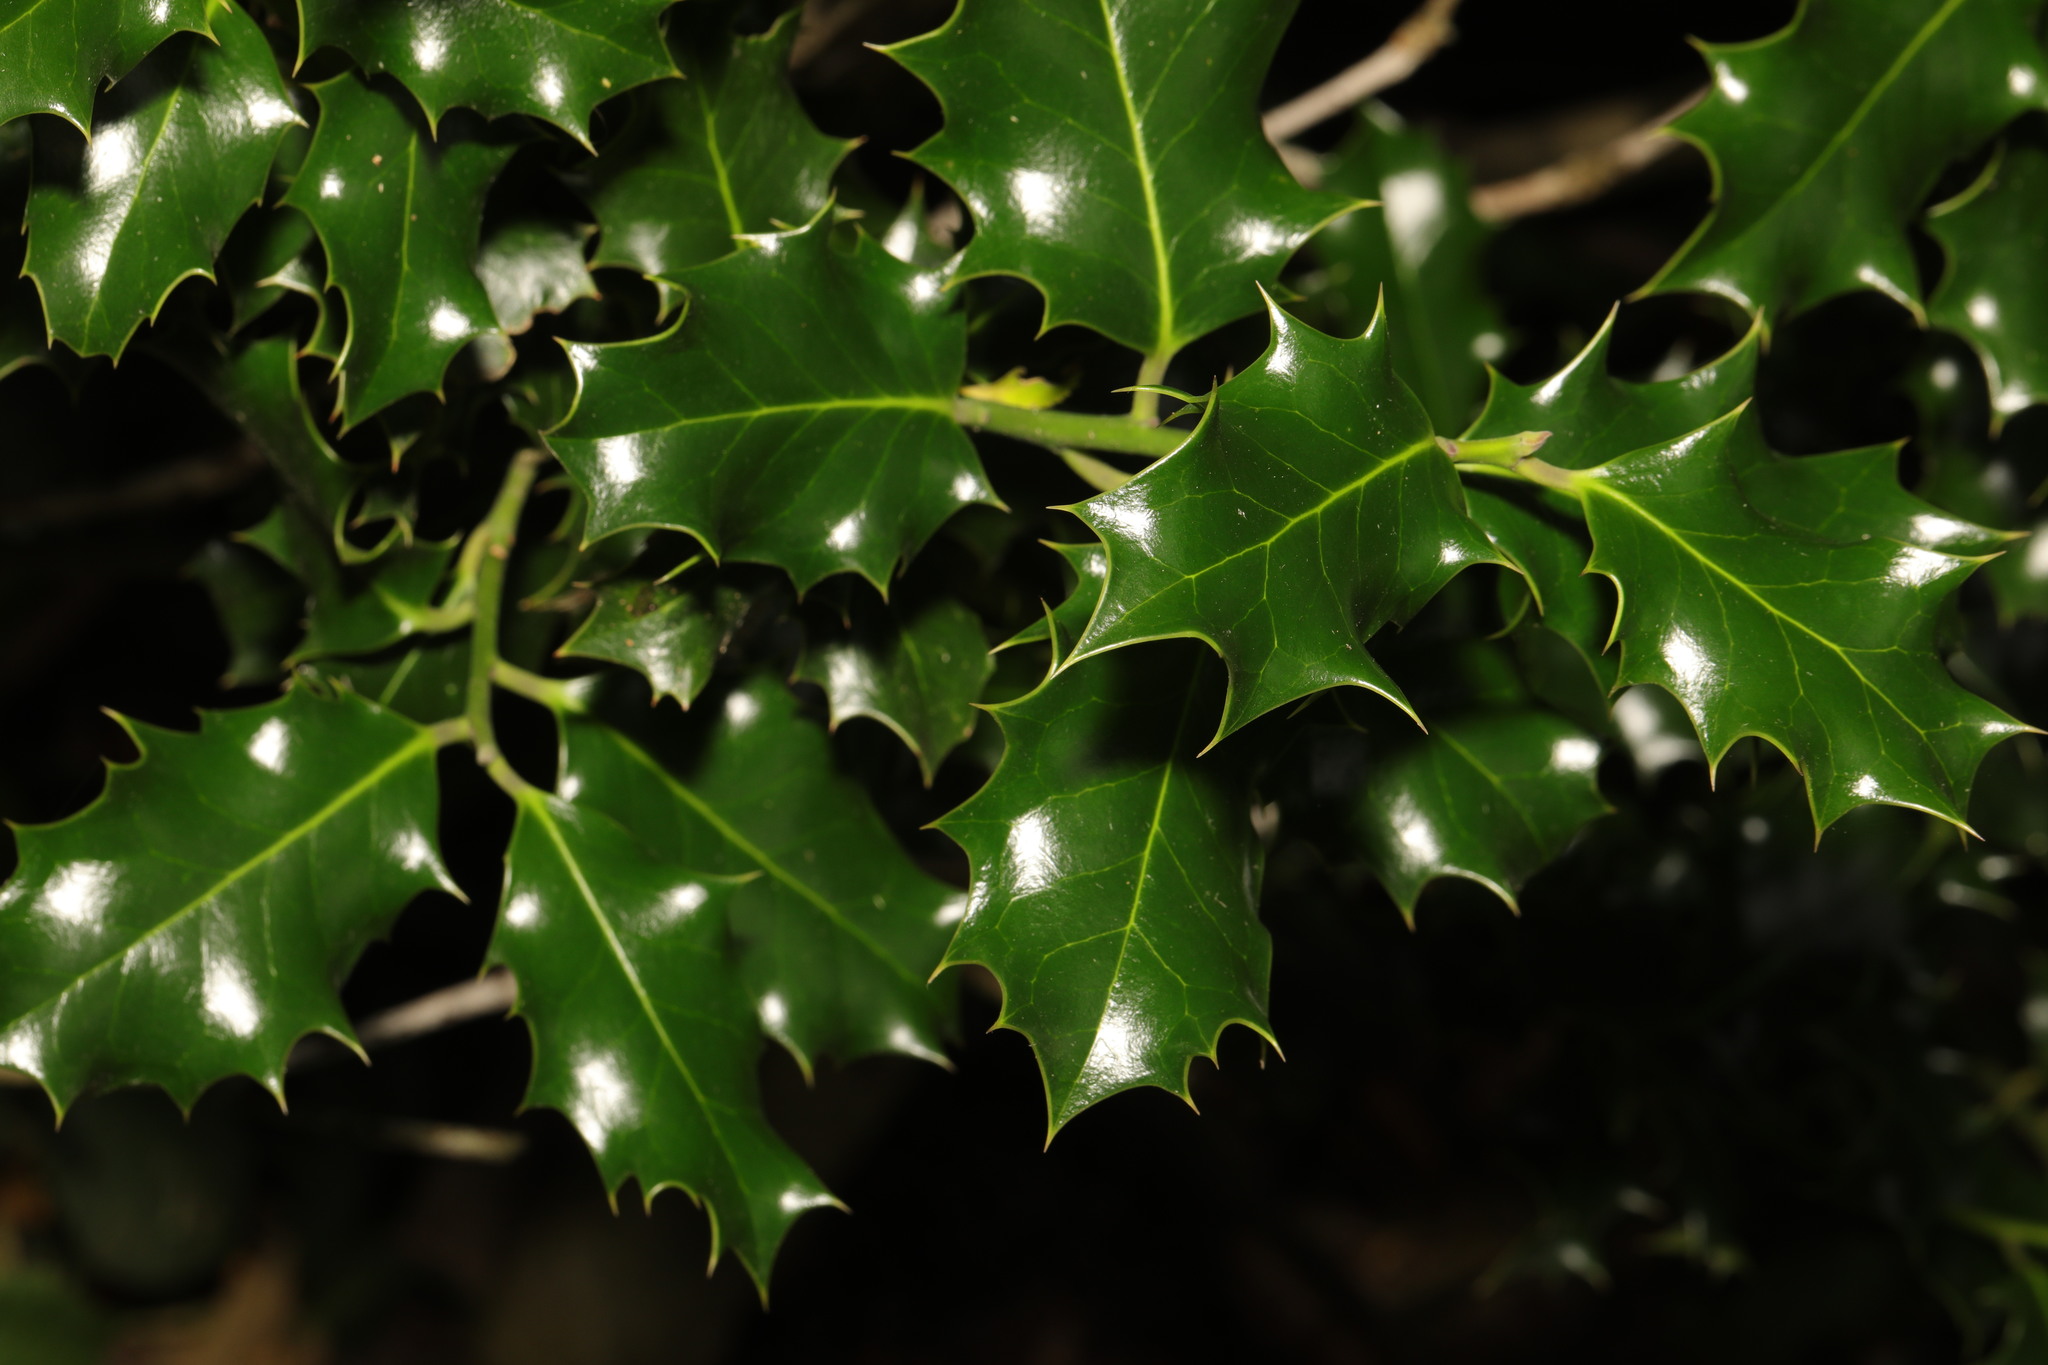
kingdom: Plantae
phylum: Tracheophyta
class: Magnoliopsida
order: Aquifoliales
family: Aquifoliaceae
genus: Ilex
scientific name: Ilex aquifolium
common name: English holly
